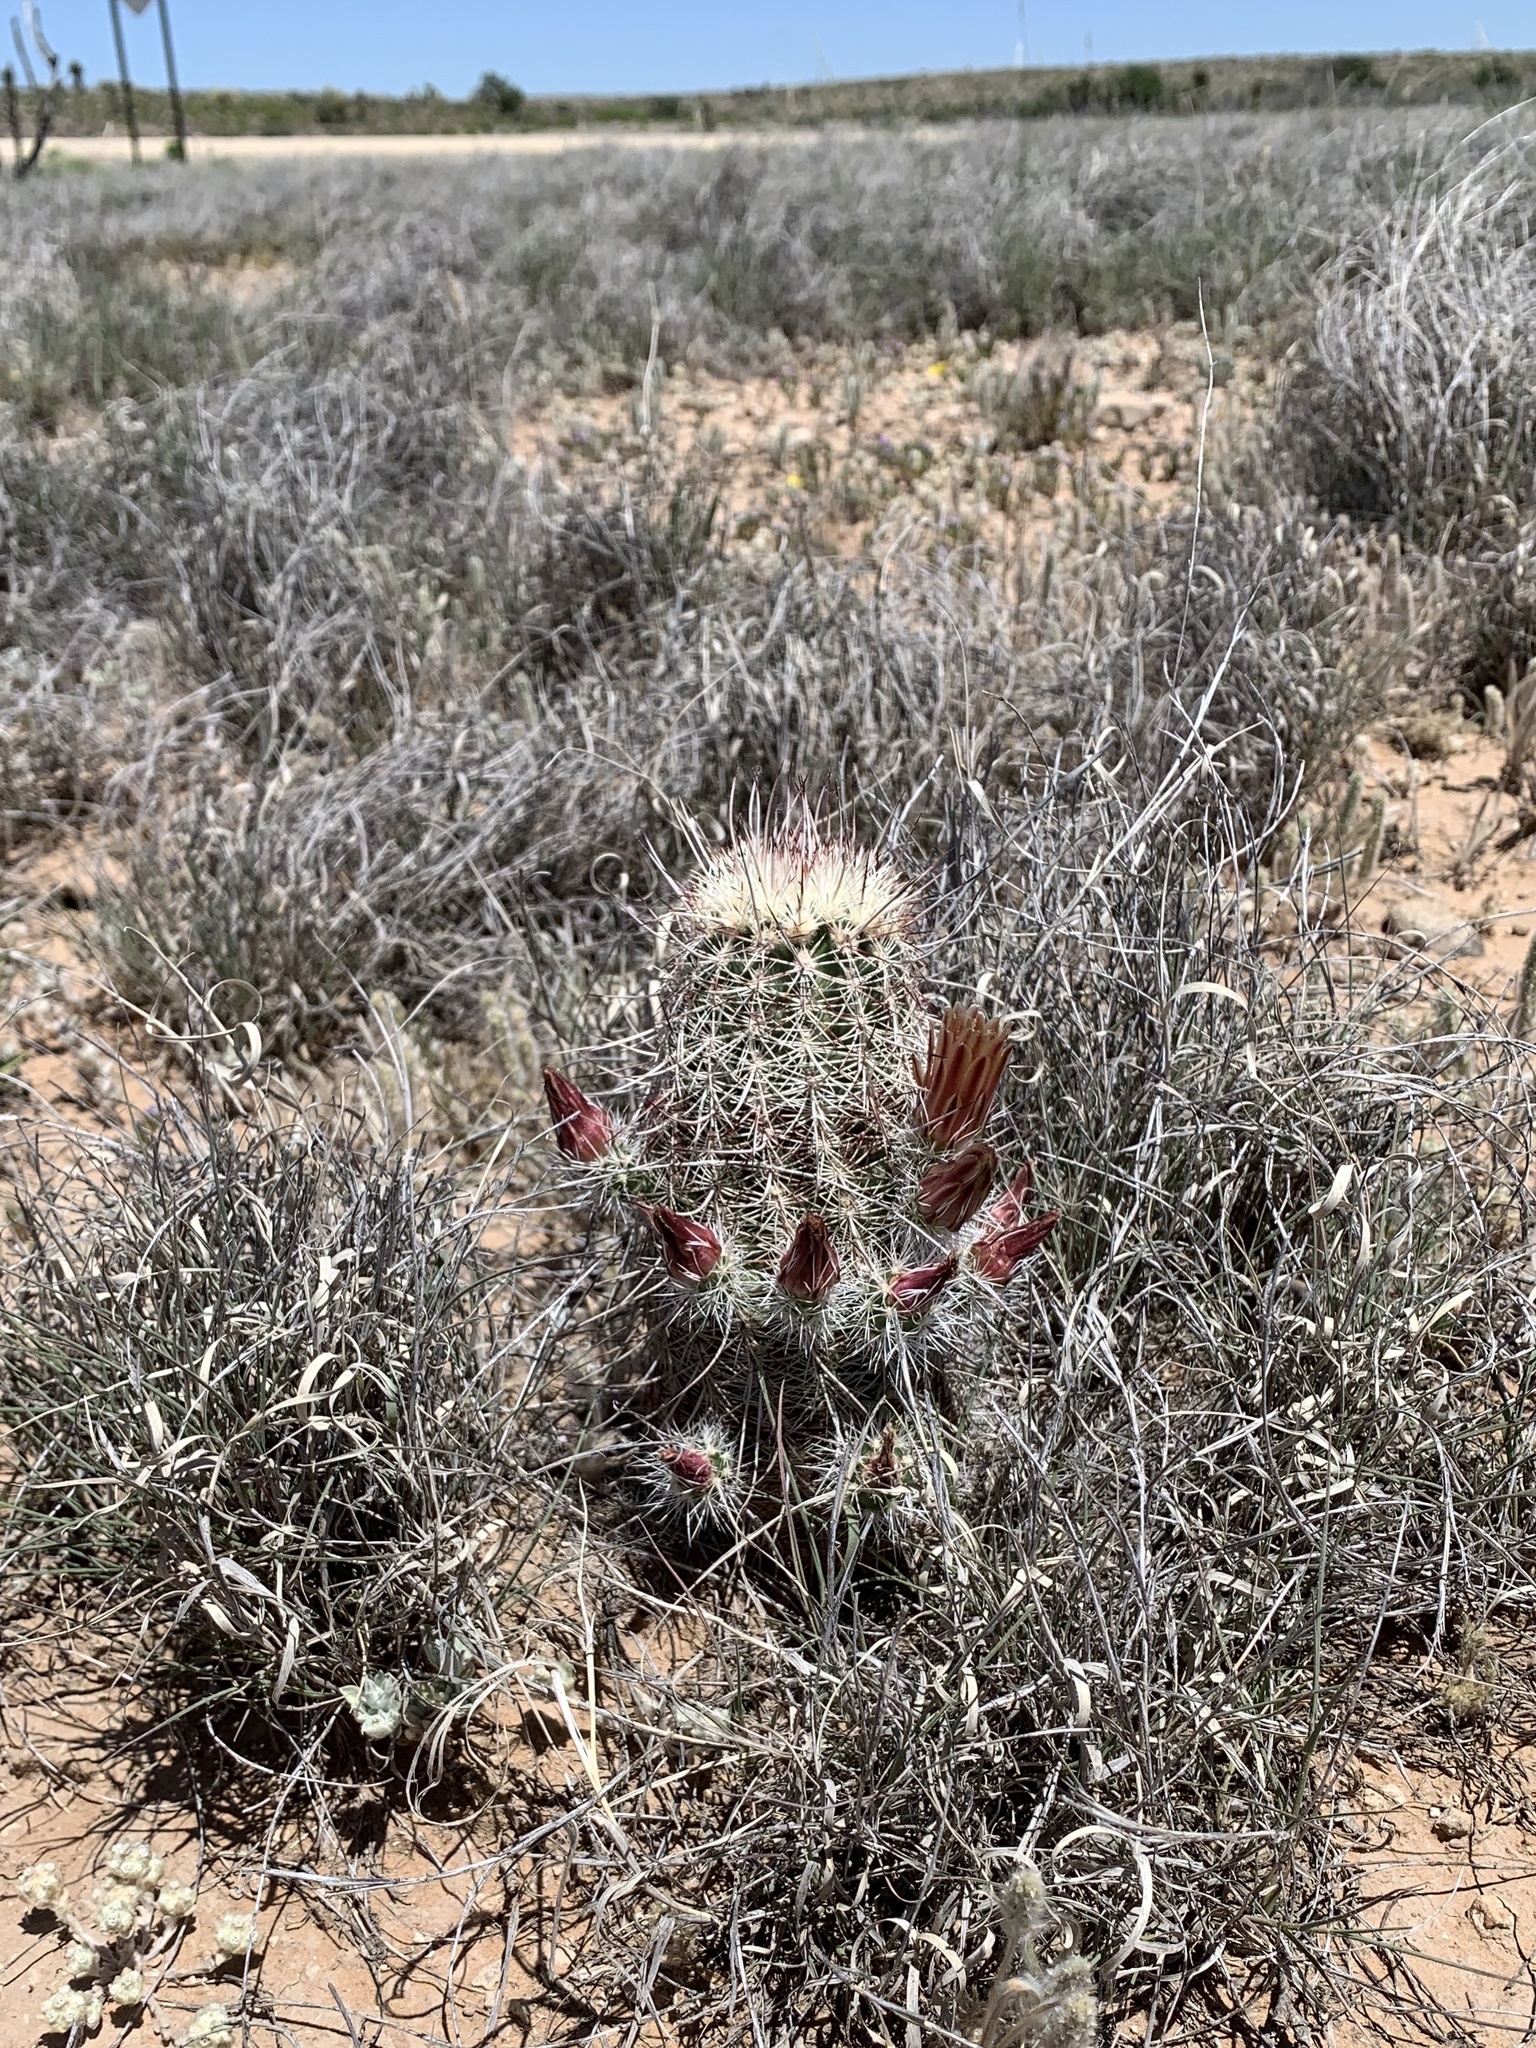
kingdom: Plantae
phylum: Tracheophyta
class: Magnoliopsida
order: Caryophyllales
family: Cactaceae
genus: Echinocereus
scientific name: Echinocereus viridiflorus
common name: Nylon hedgehog cactus
